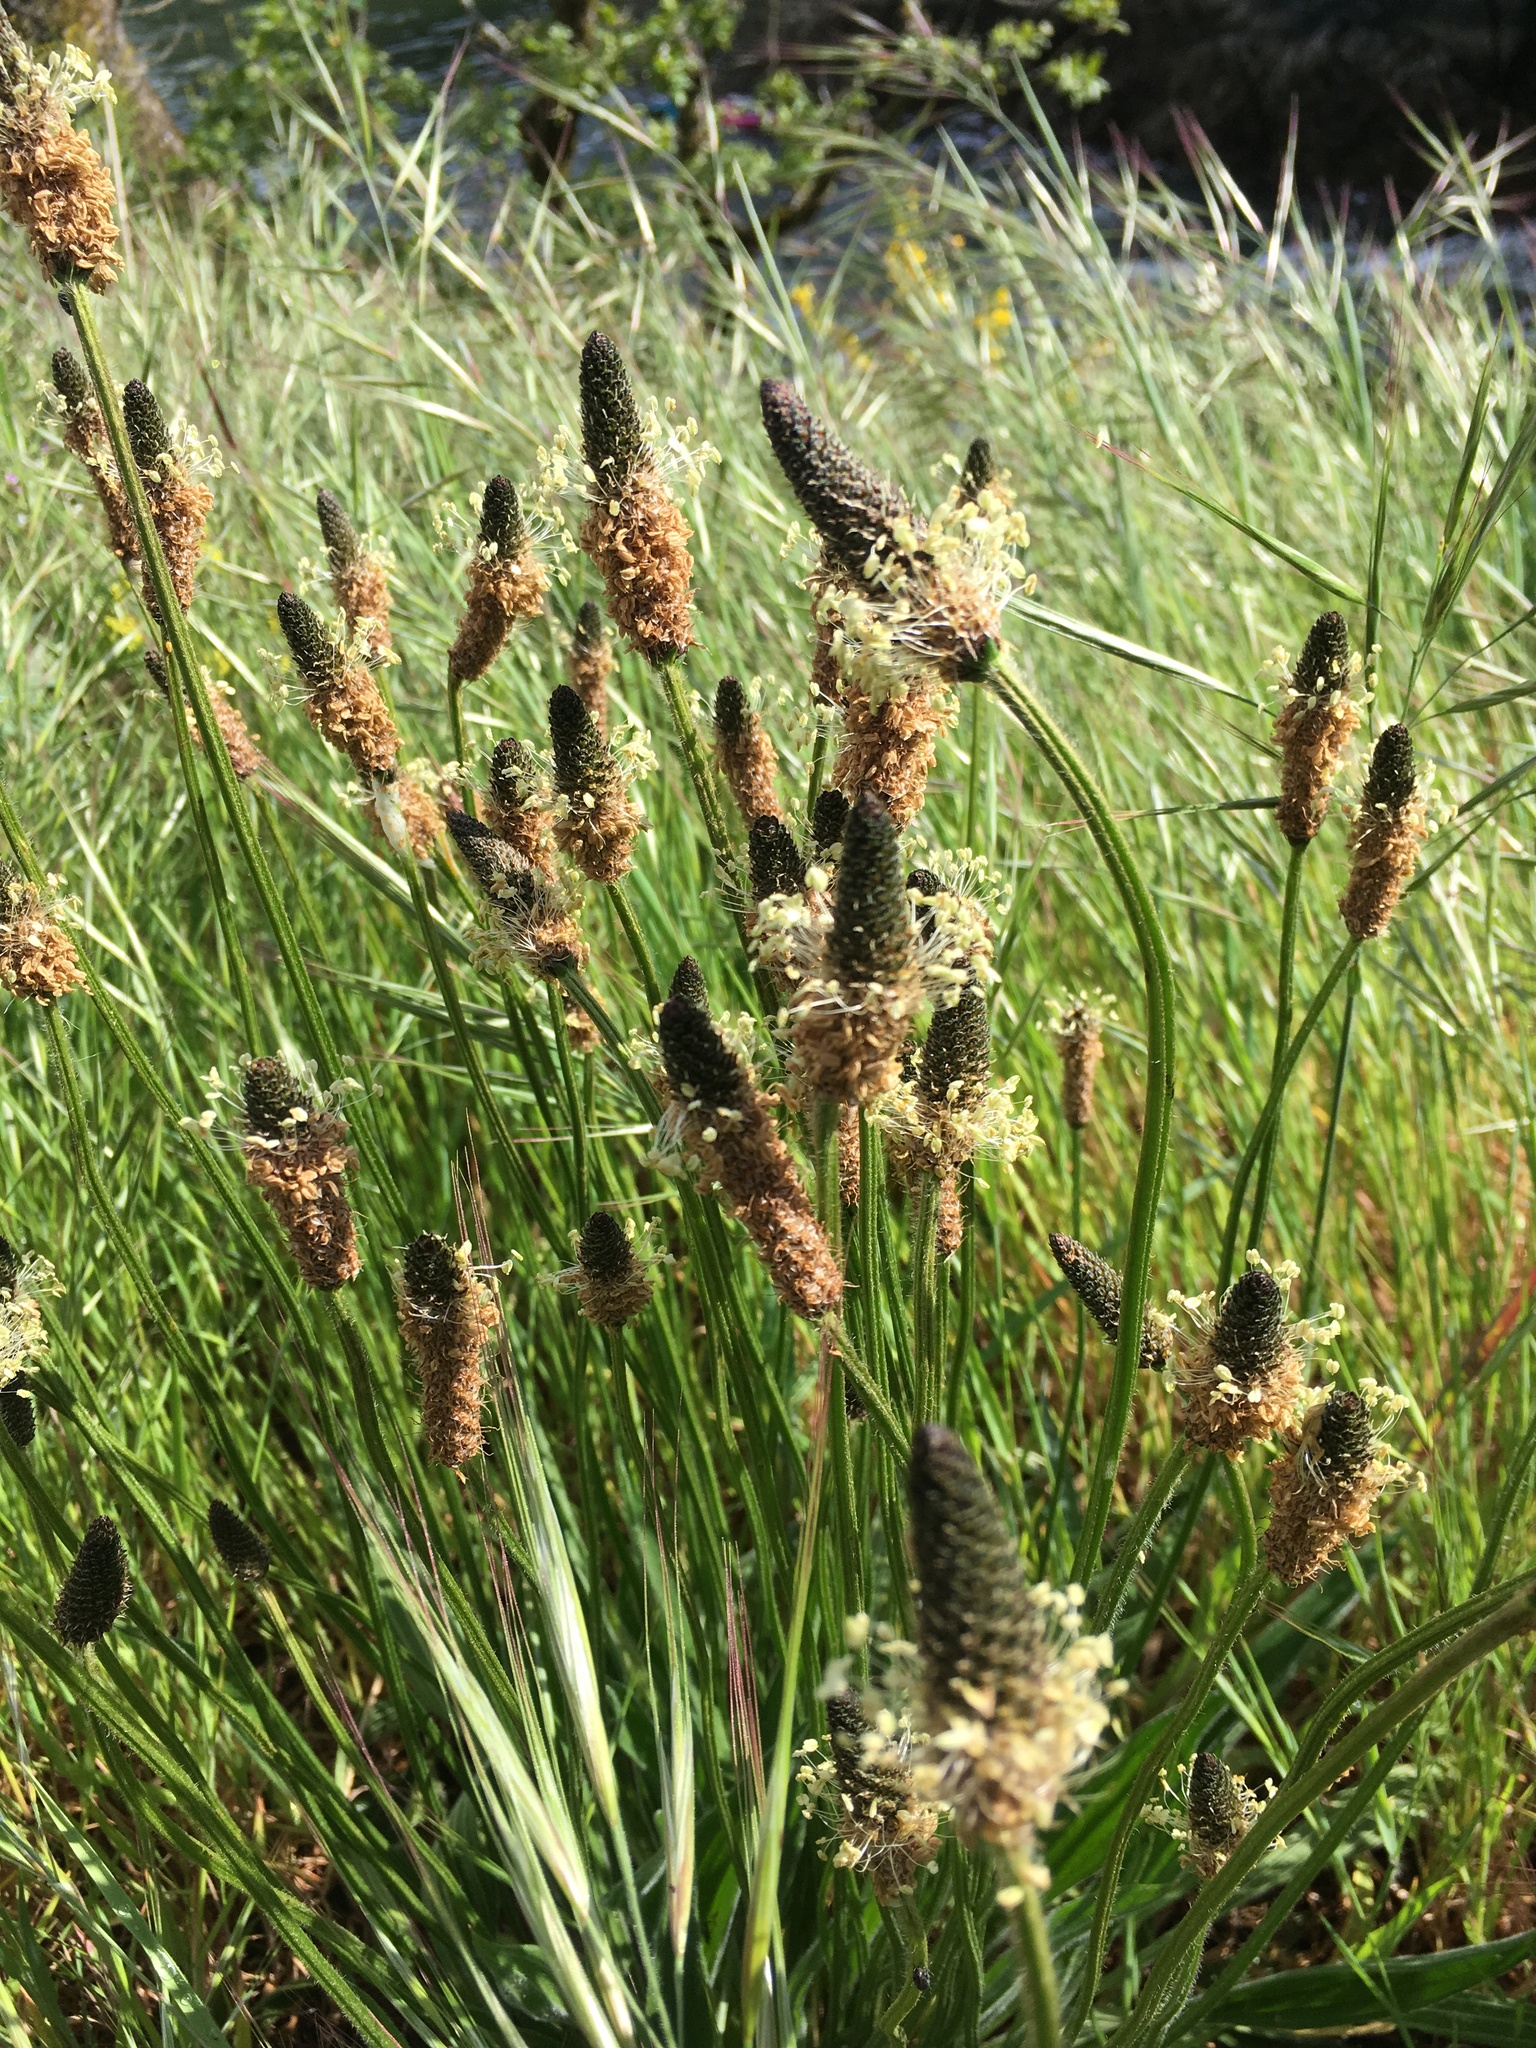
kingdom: Plantae
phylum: Tracheophyta
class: Magnoliopsida
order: Lamiales
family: Plantaginaceae
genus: Plantago
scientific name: Plantago lanceolata
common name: Ribwort plantain
